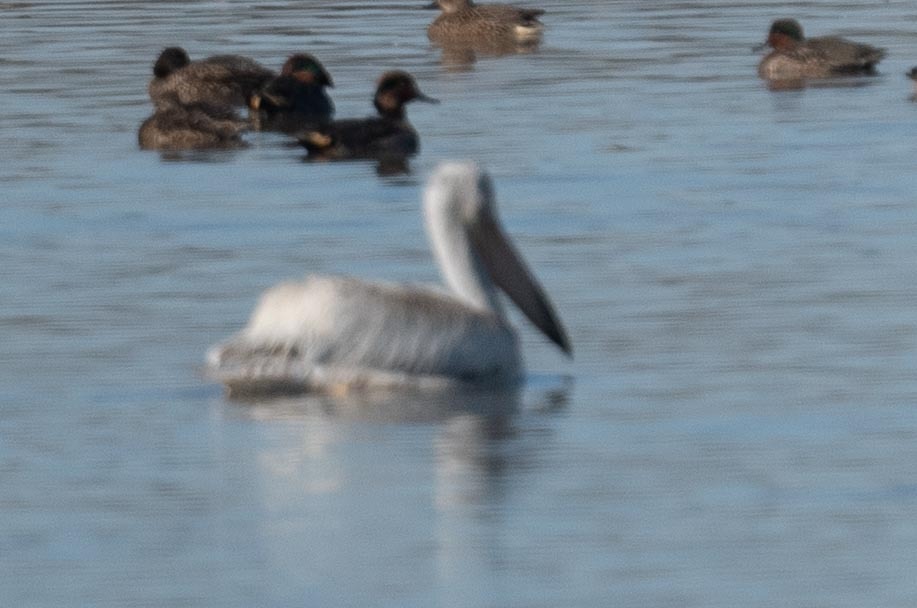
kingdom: Animalia
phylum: Chordata
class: Aves
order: Pelecaniformes
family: Pelecanidae
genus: Pelecanus
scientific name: Pelecanus erythrorhynchos
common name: American white pelican
